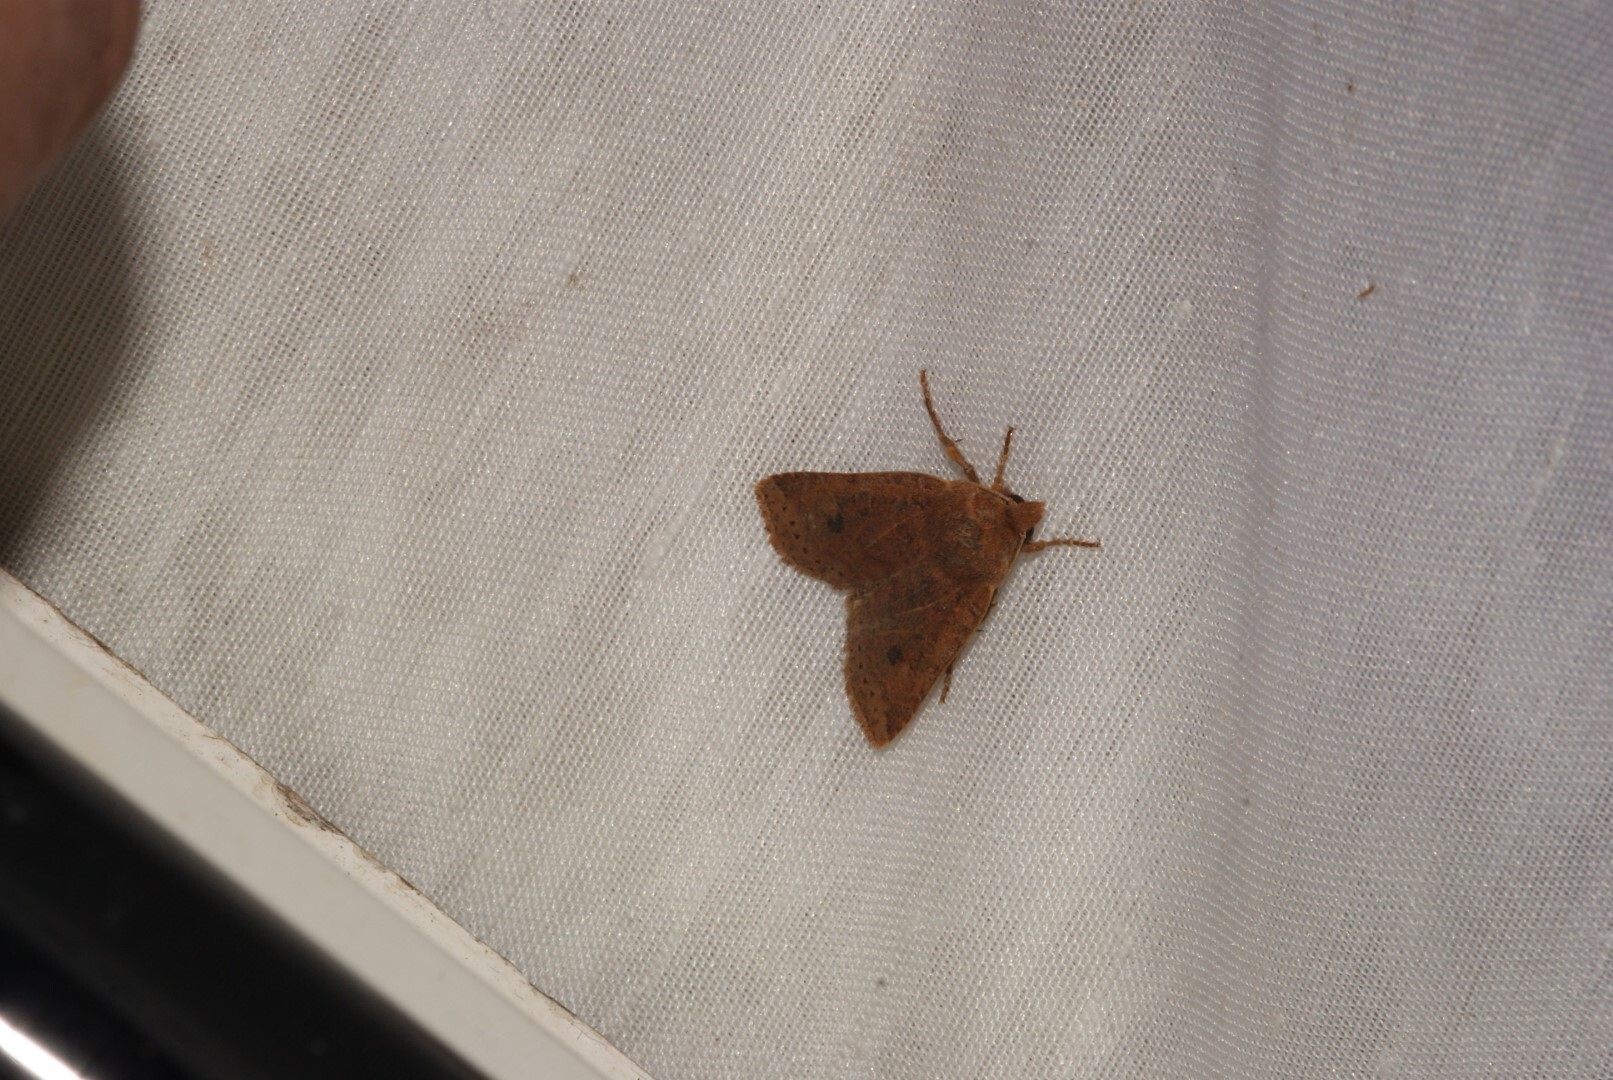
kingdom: Animalia
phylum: Arthropoda
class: Insecta
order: Lepidoptera
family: Noctuidae
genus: Conistra
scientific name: Conistra vaccinii
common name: Chestnut
